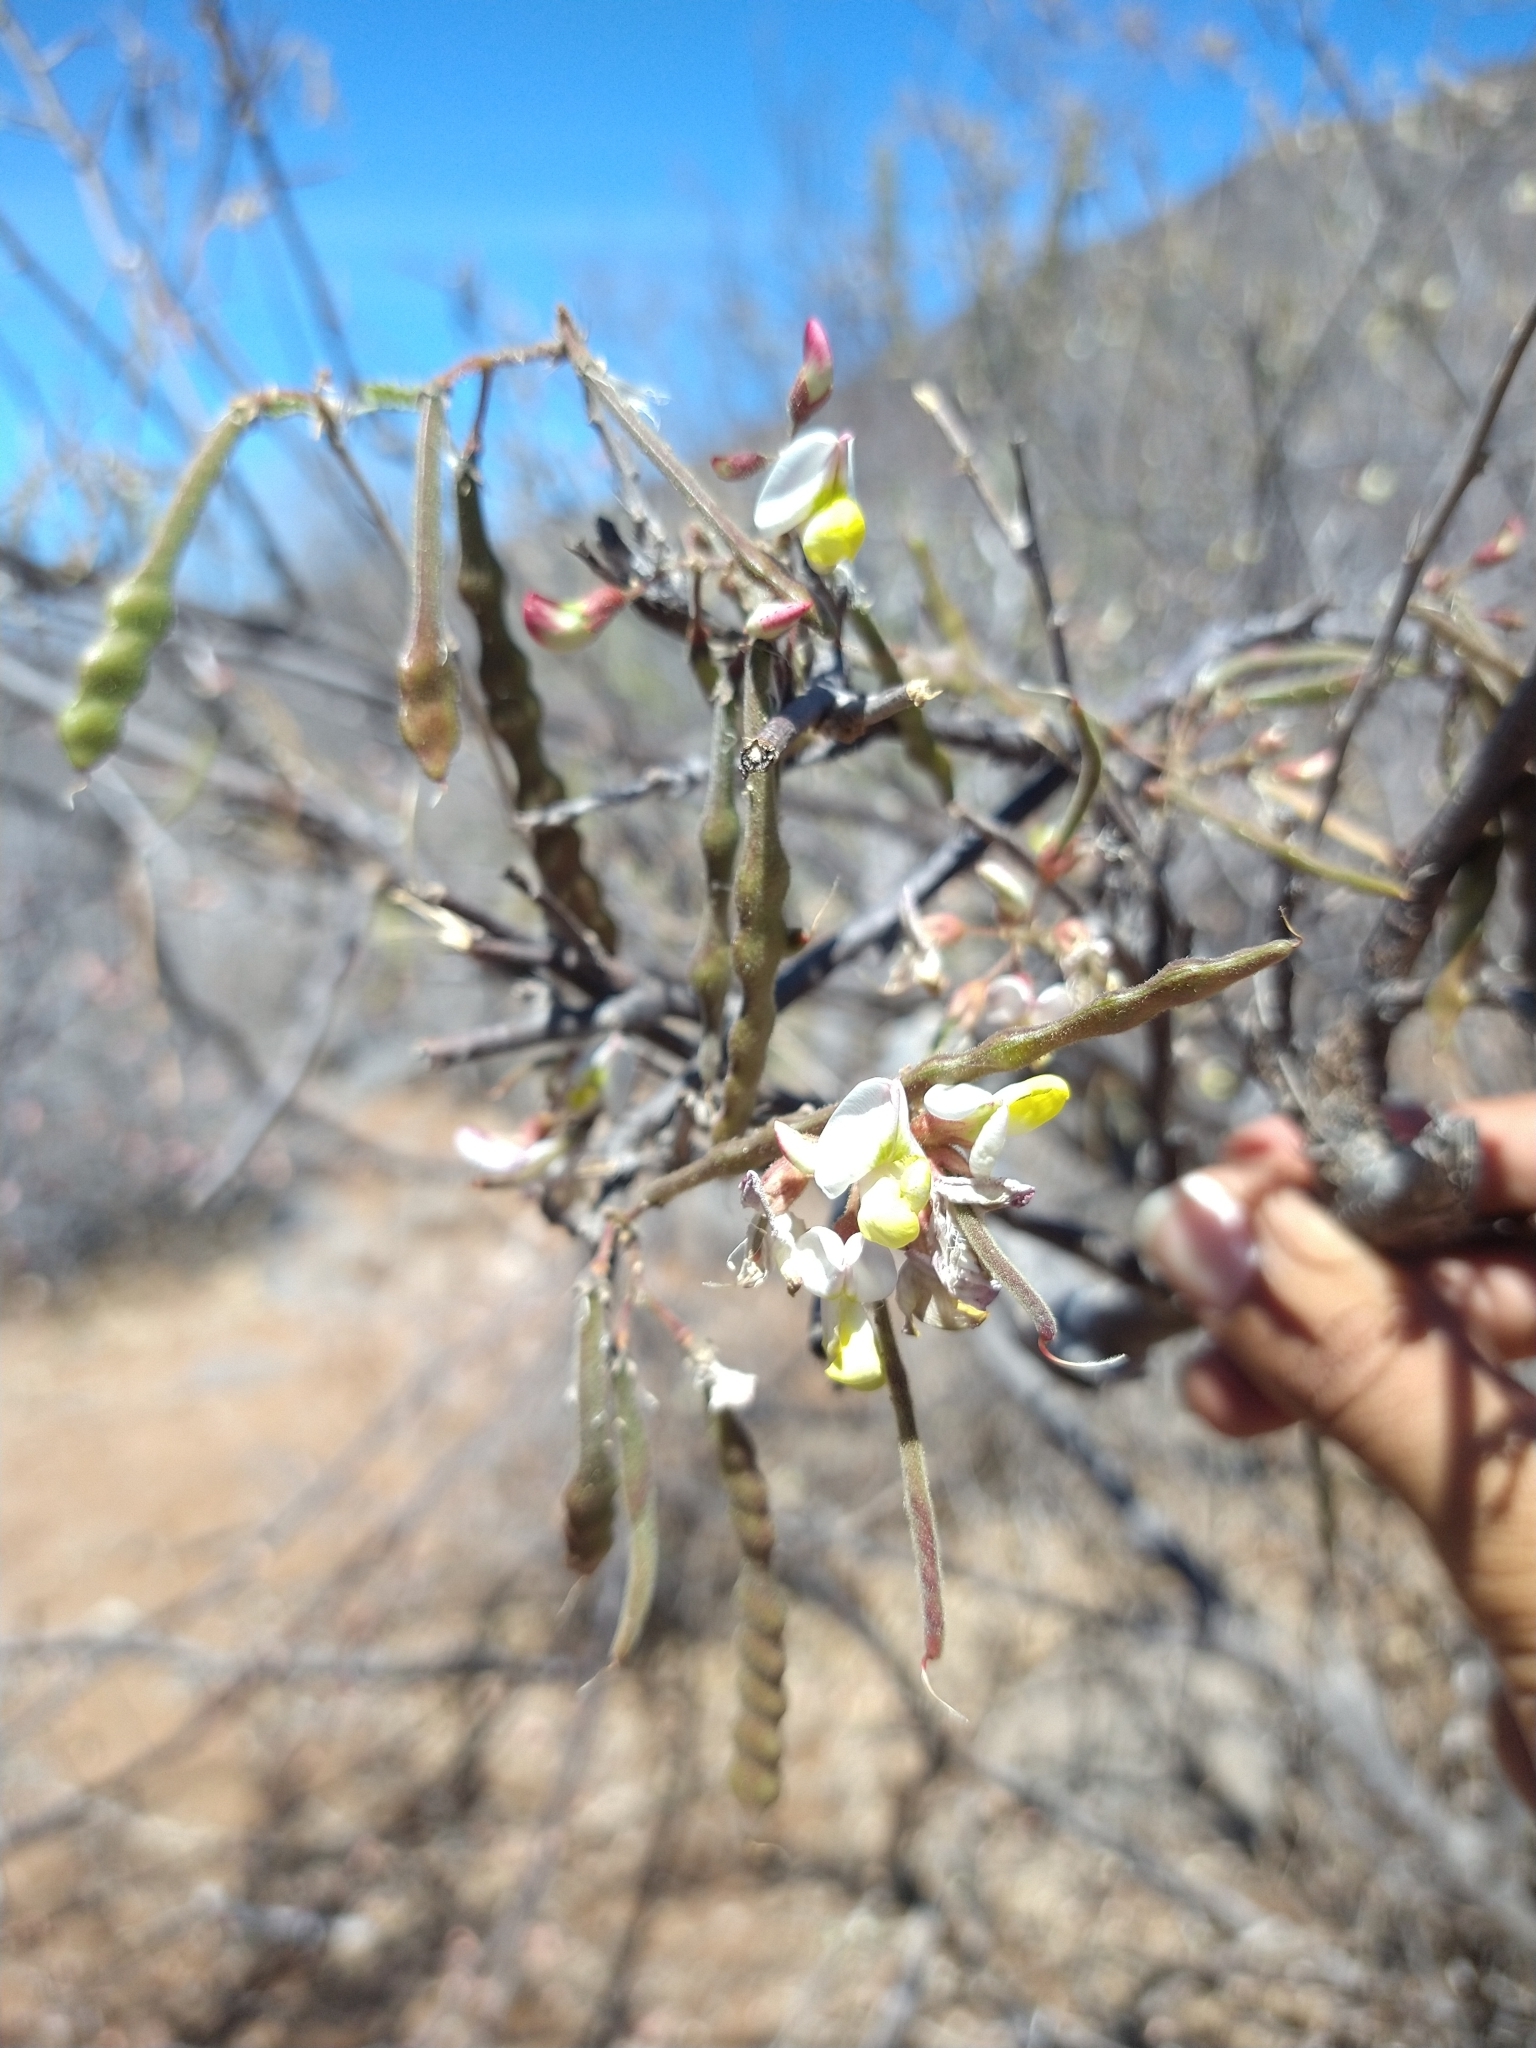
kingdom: Plantae
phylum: Tracheophyta
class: Magnoliopsida
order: Fabales
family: Fabaceae
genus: Coursetia
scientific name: Coursetia glandulosa
